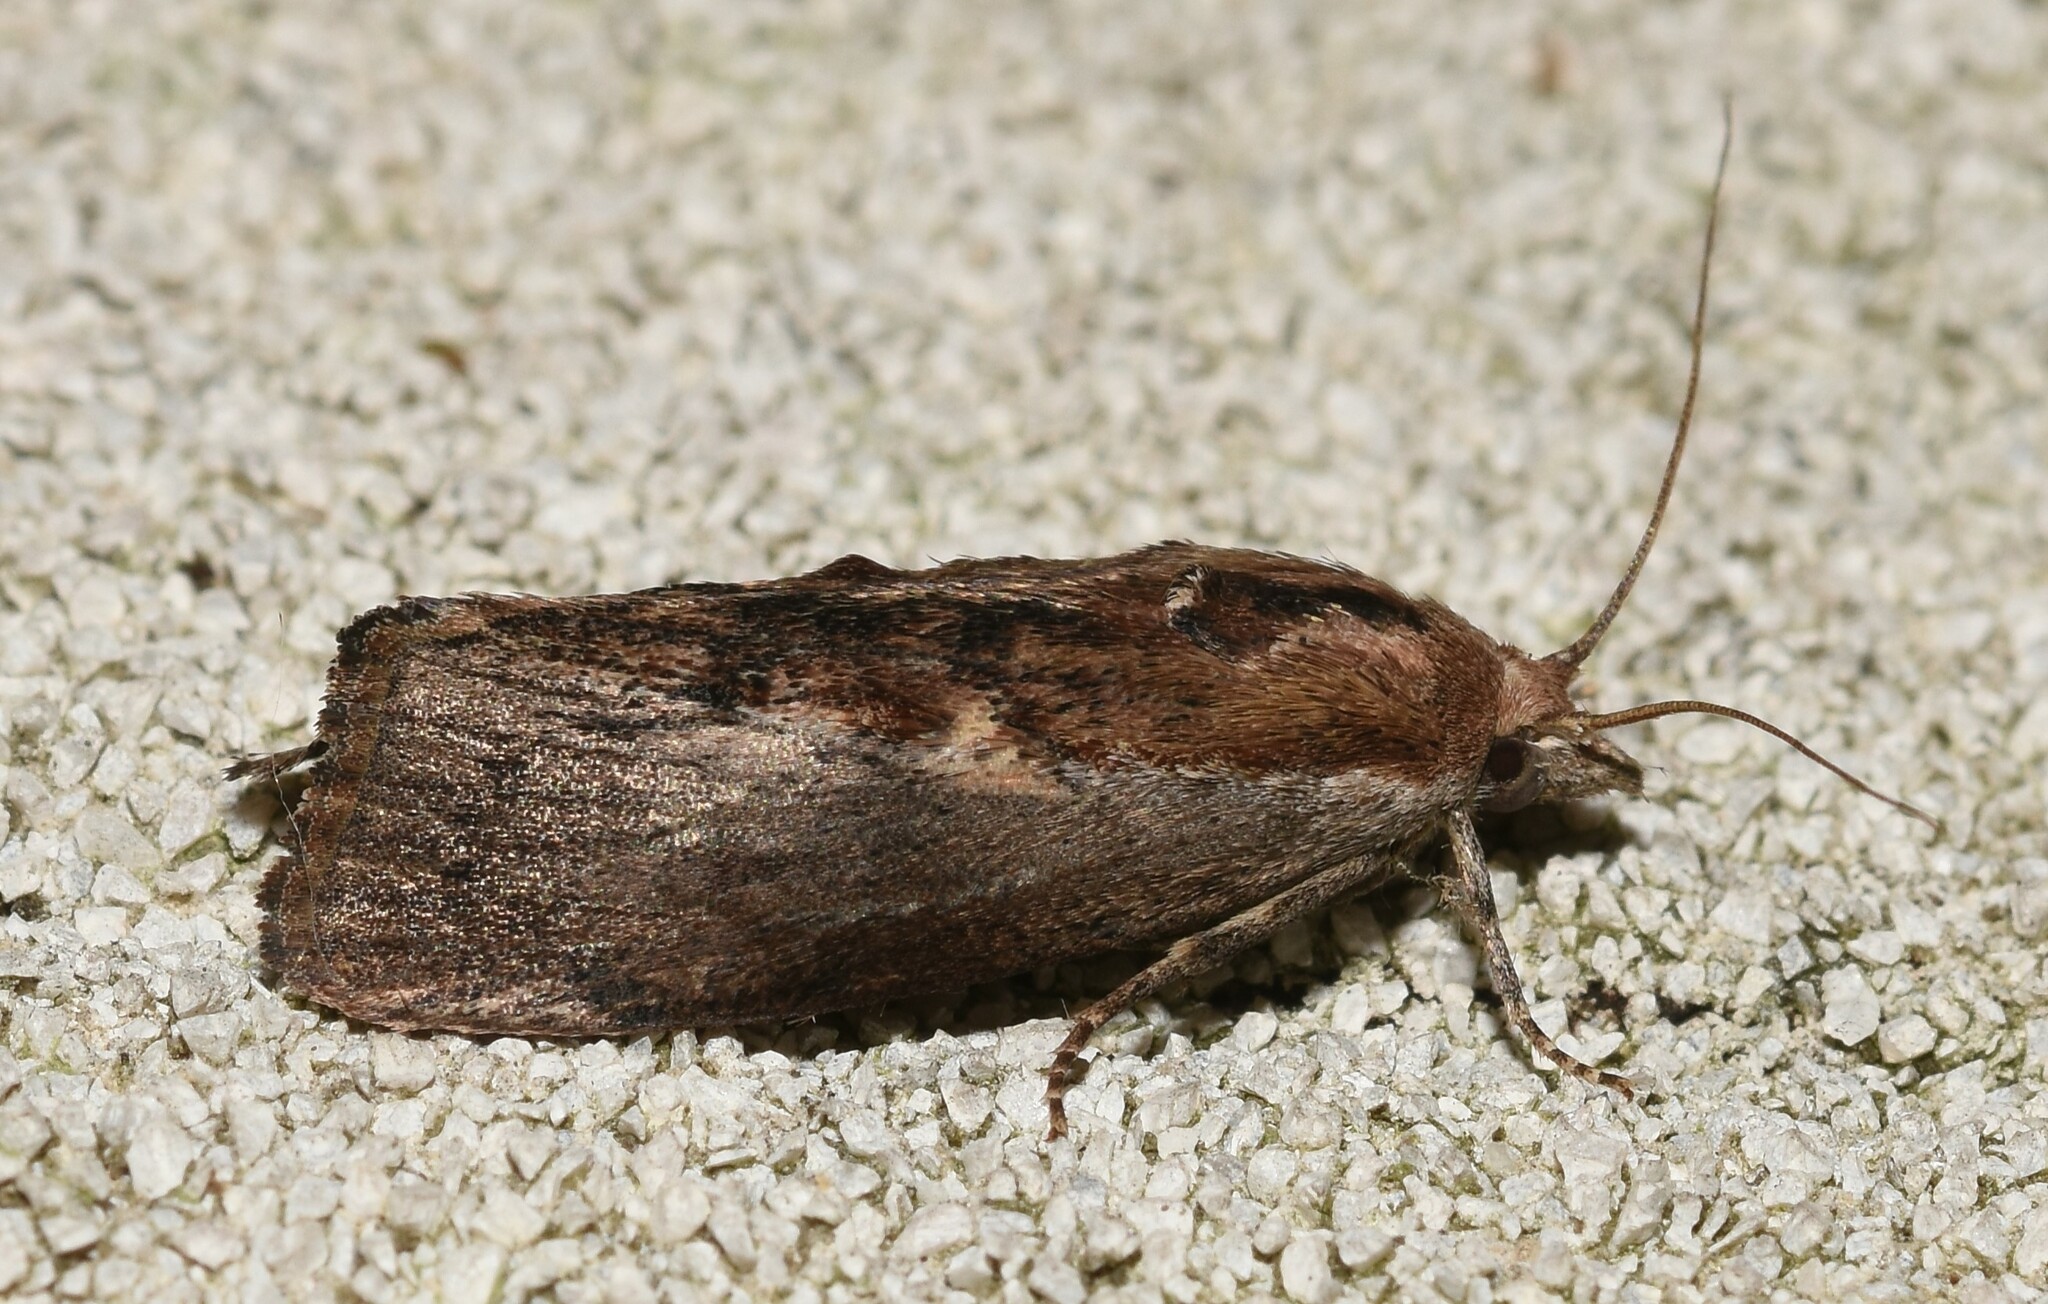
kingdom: Animalia
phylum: Arthropoda
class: Insecta
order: Lepidoptera
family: Pyralidae
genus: Galleria
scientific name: Galleria mellonella
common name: Greater wax moth
